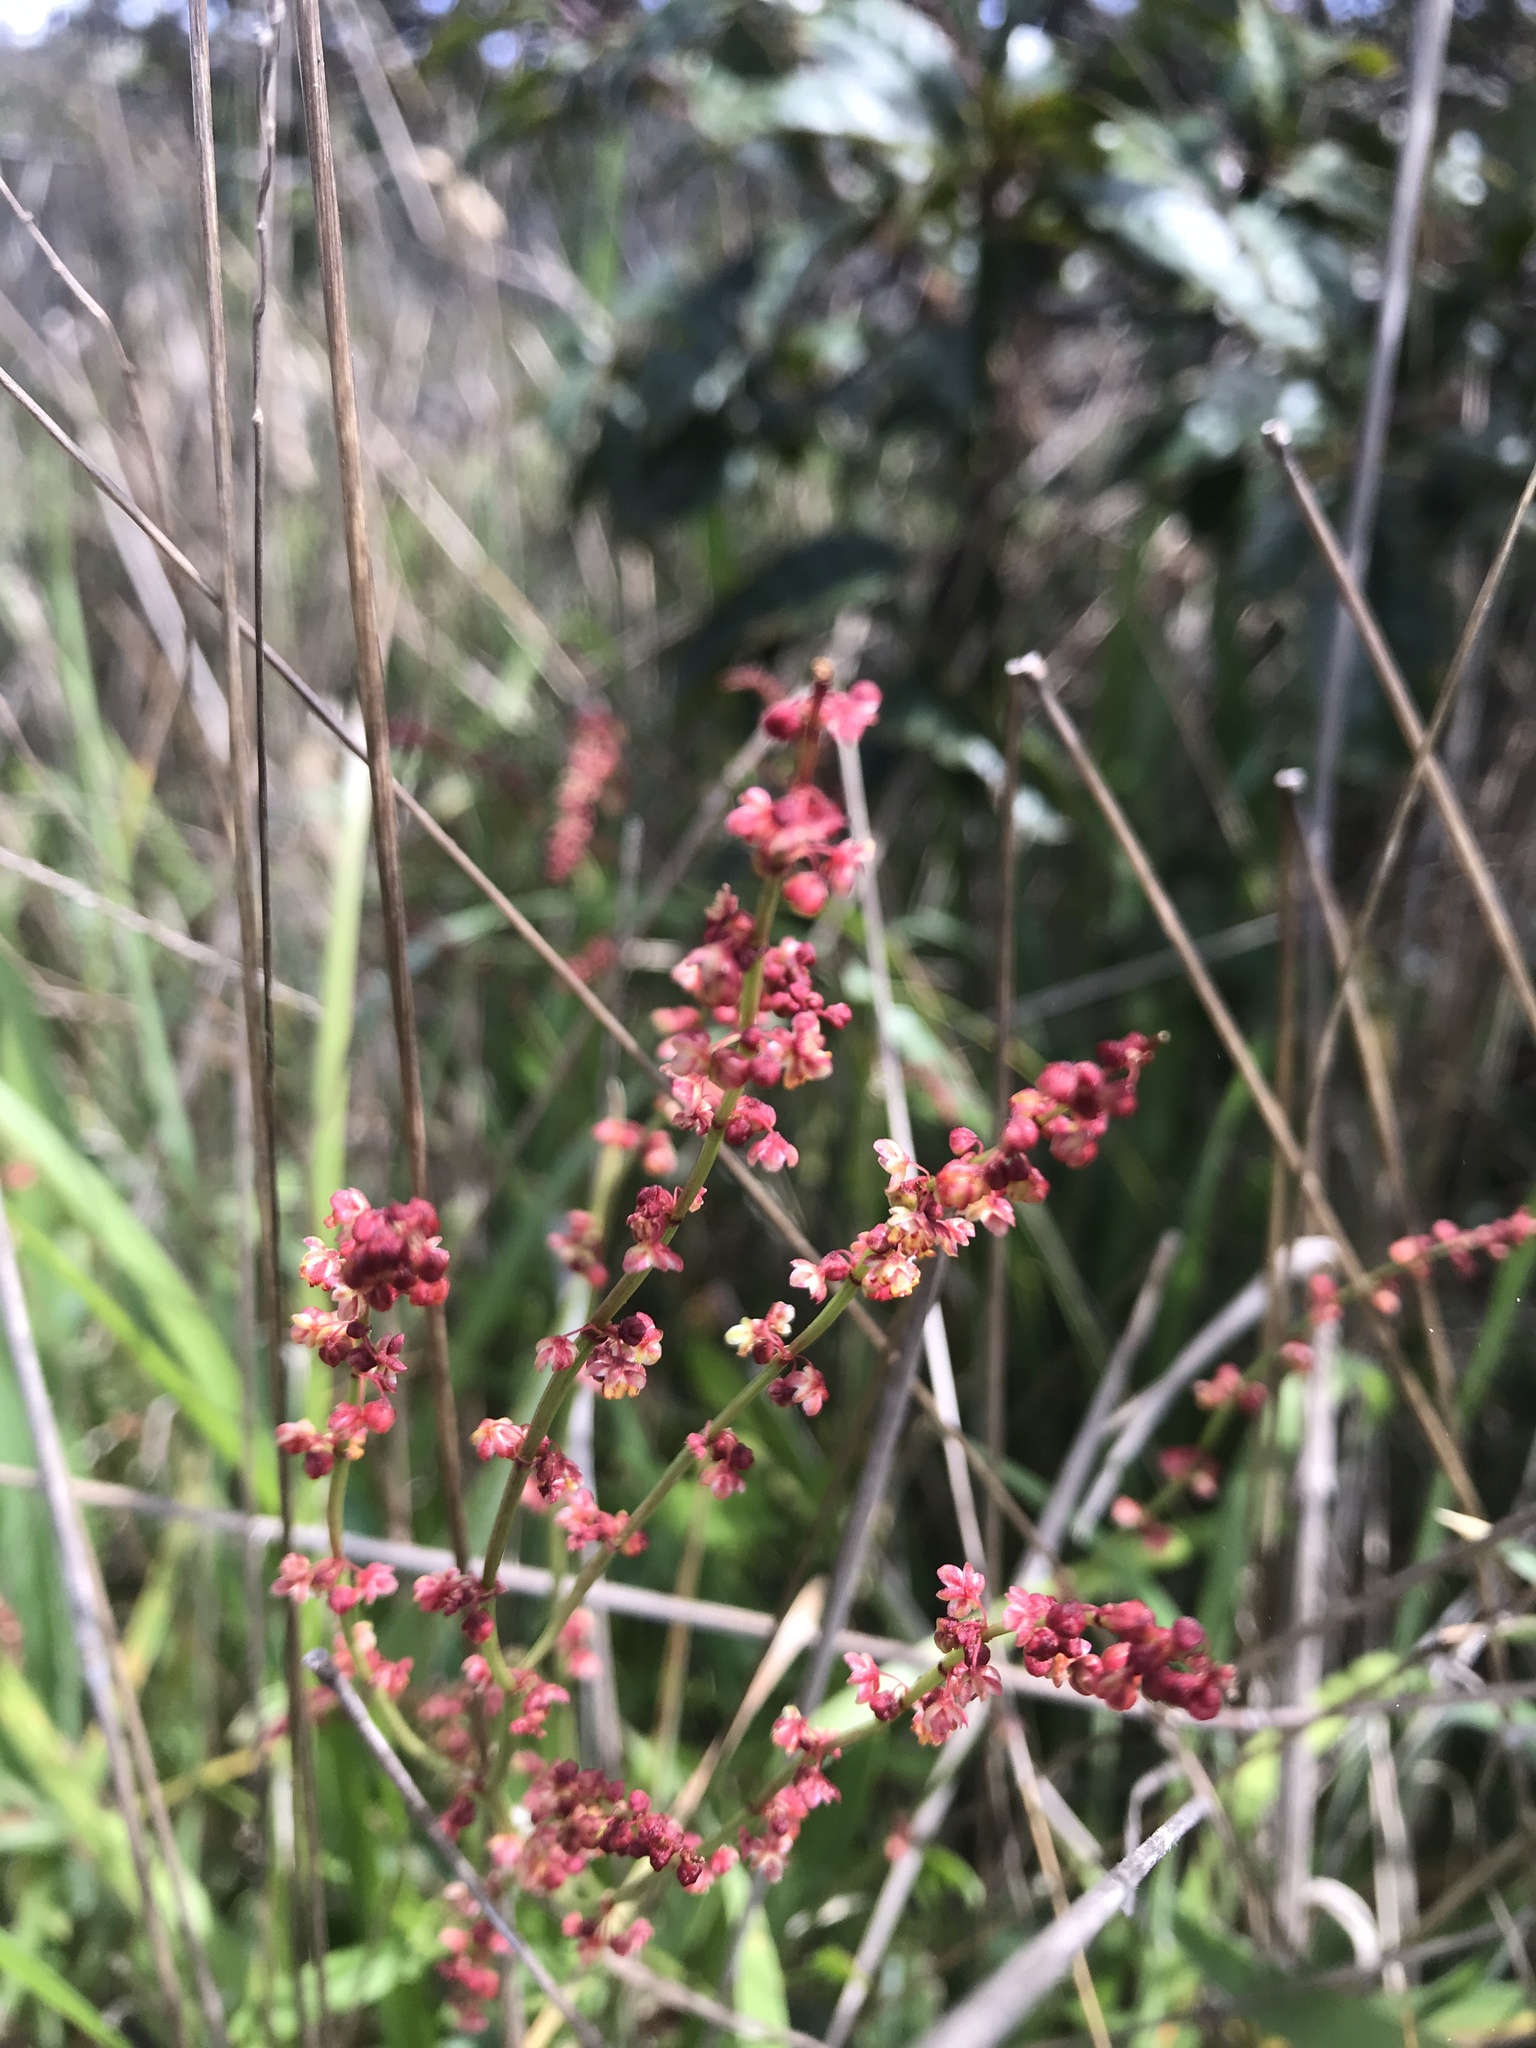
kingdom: Plantae
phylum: Tracheophyta
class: Magnoliopsida
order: Caryophyllales
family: Polygonaceae
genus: Rumex
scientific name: Rumex acetosella
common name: Common sheep sorrel
